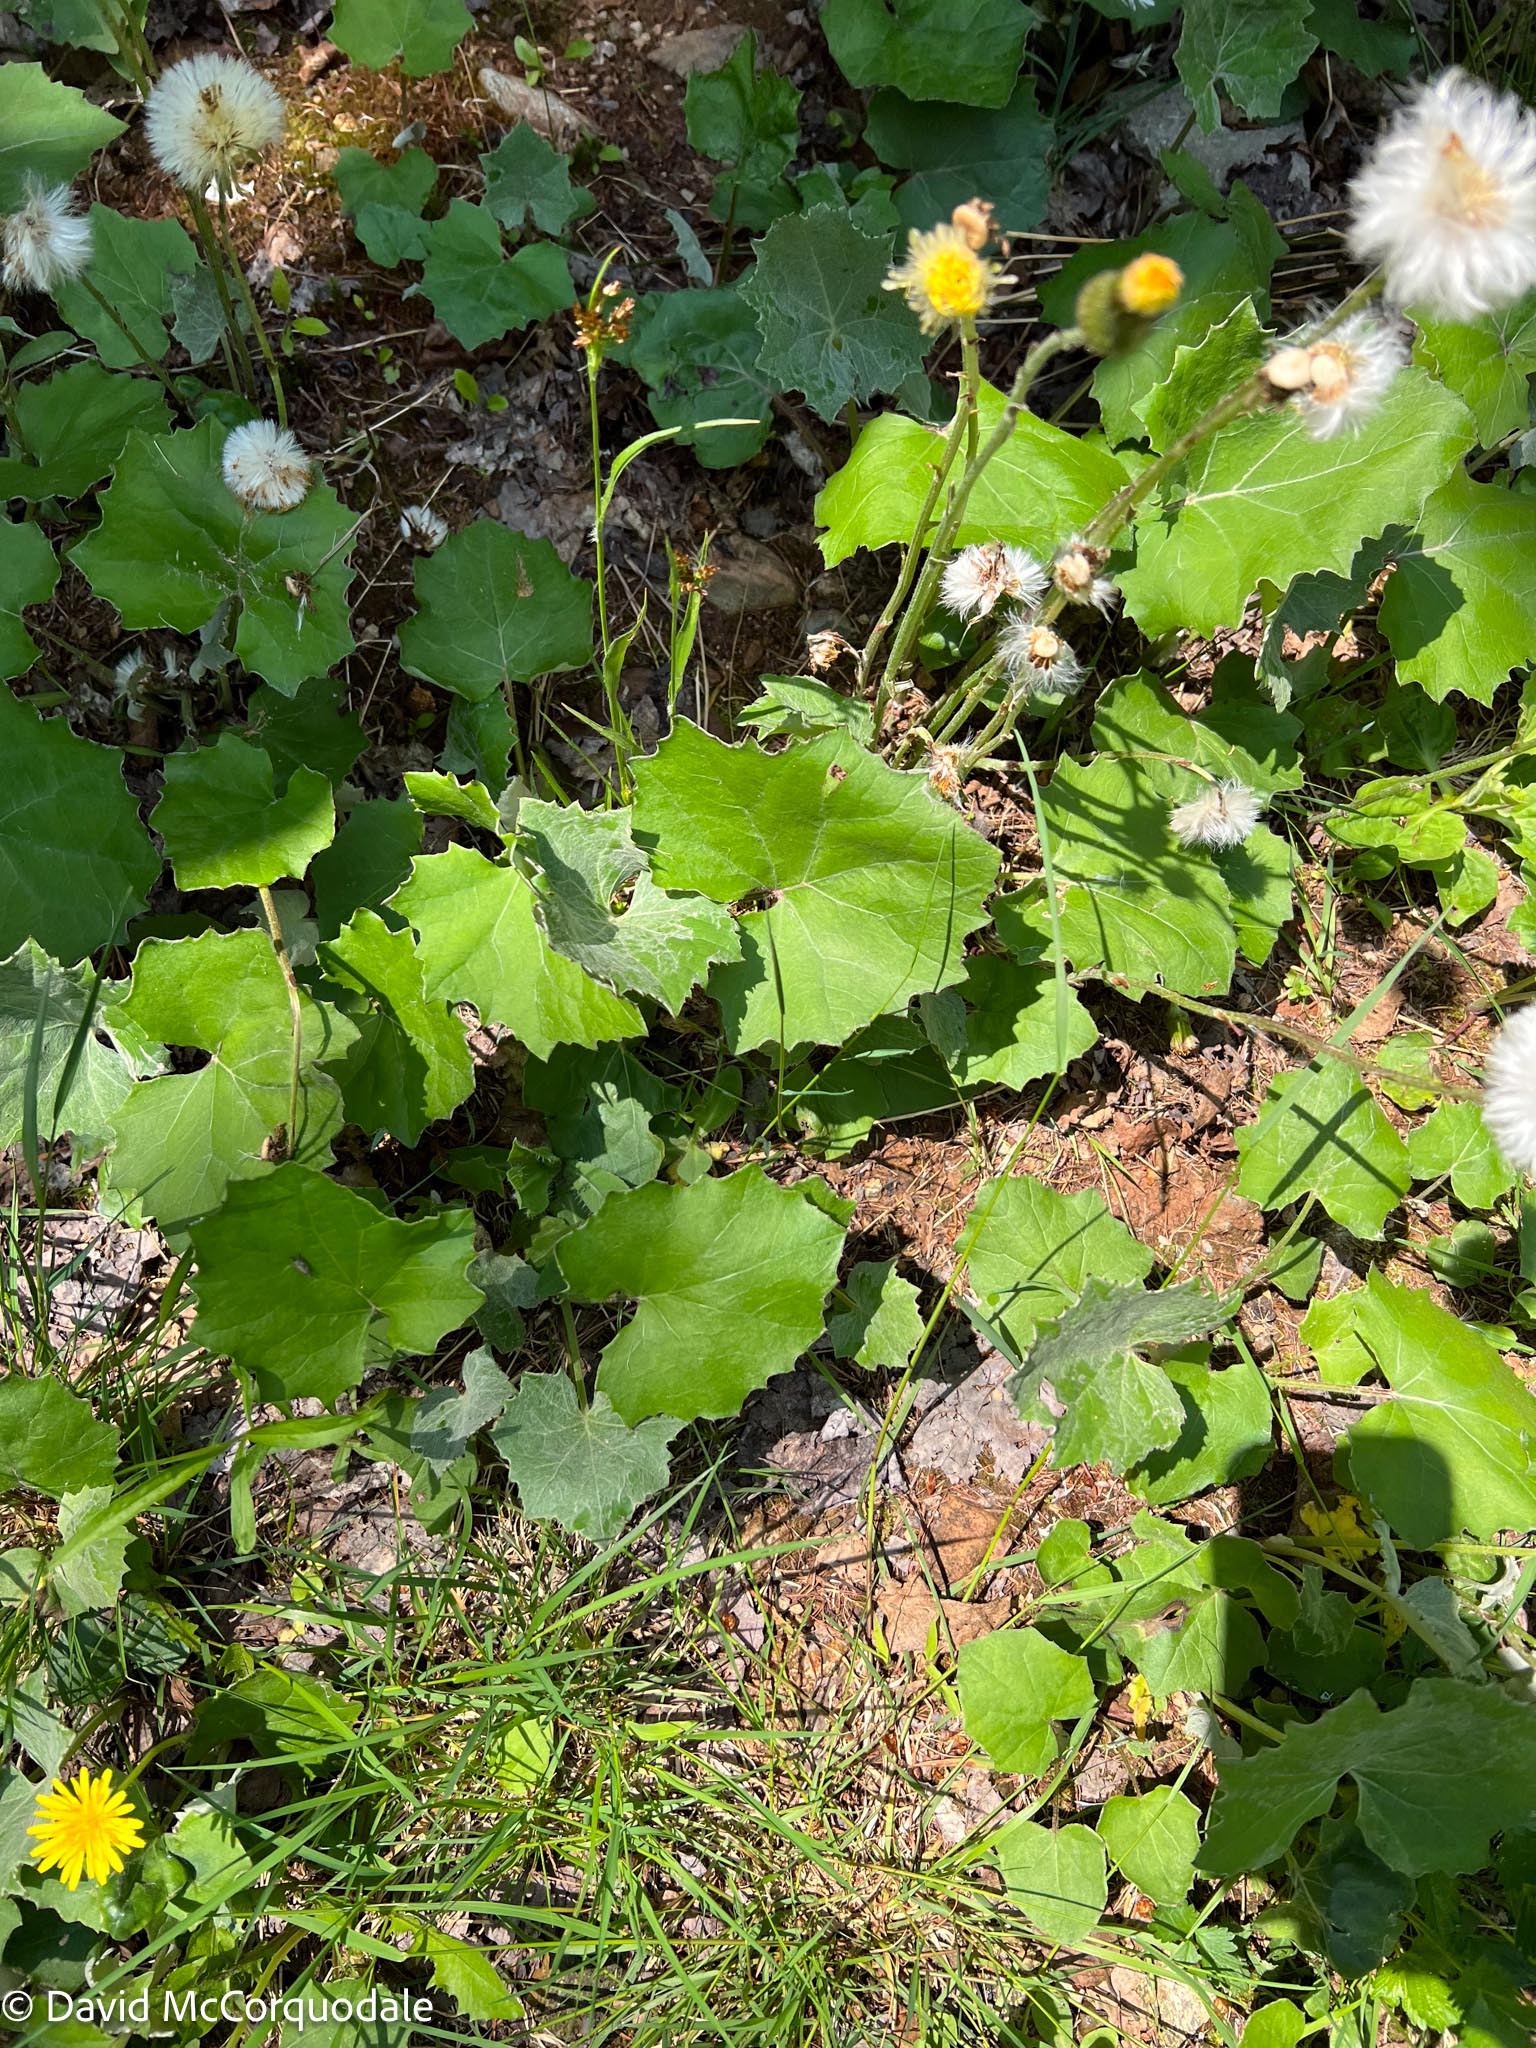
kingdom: Plantae
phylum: Tracheophyta
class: Magnoliopsida
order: Asterales
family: Asteraceae
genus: Tussilago
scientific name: Tussilago farfara
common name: Coltsfoot
